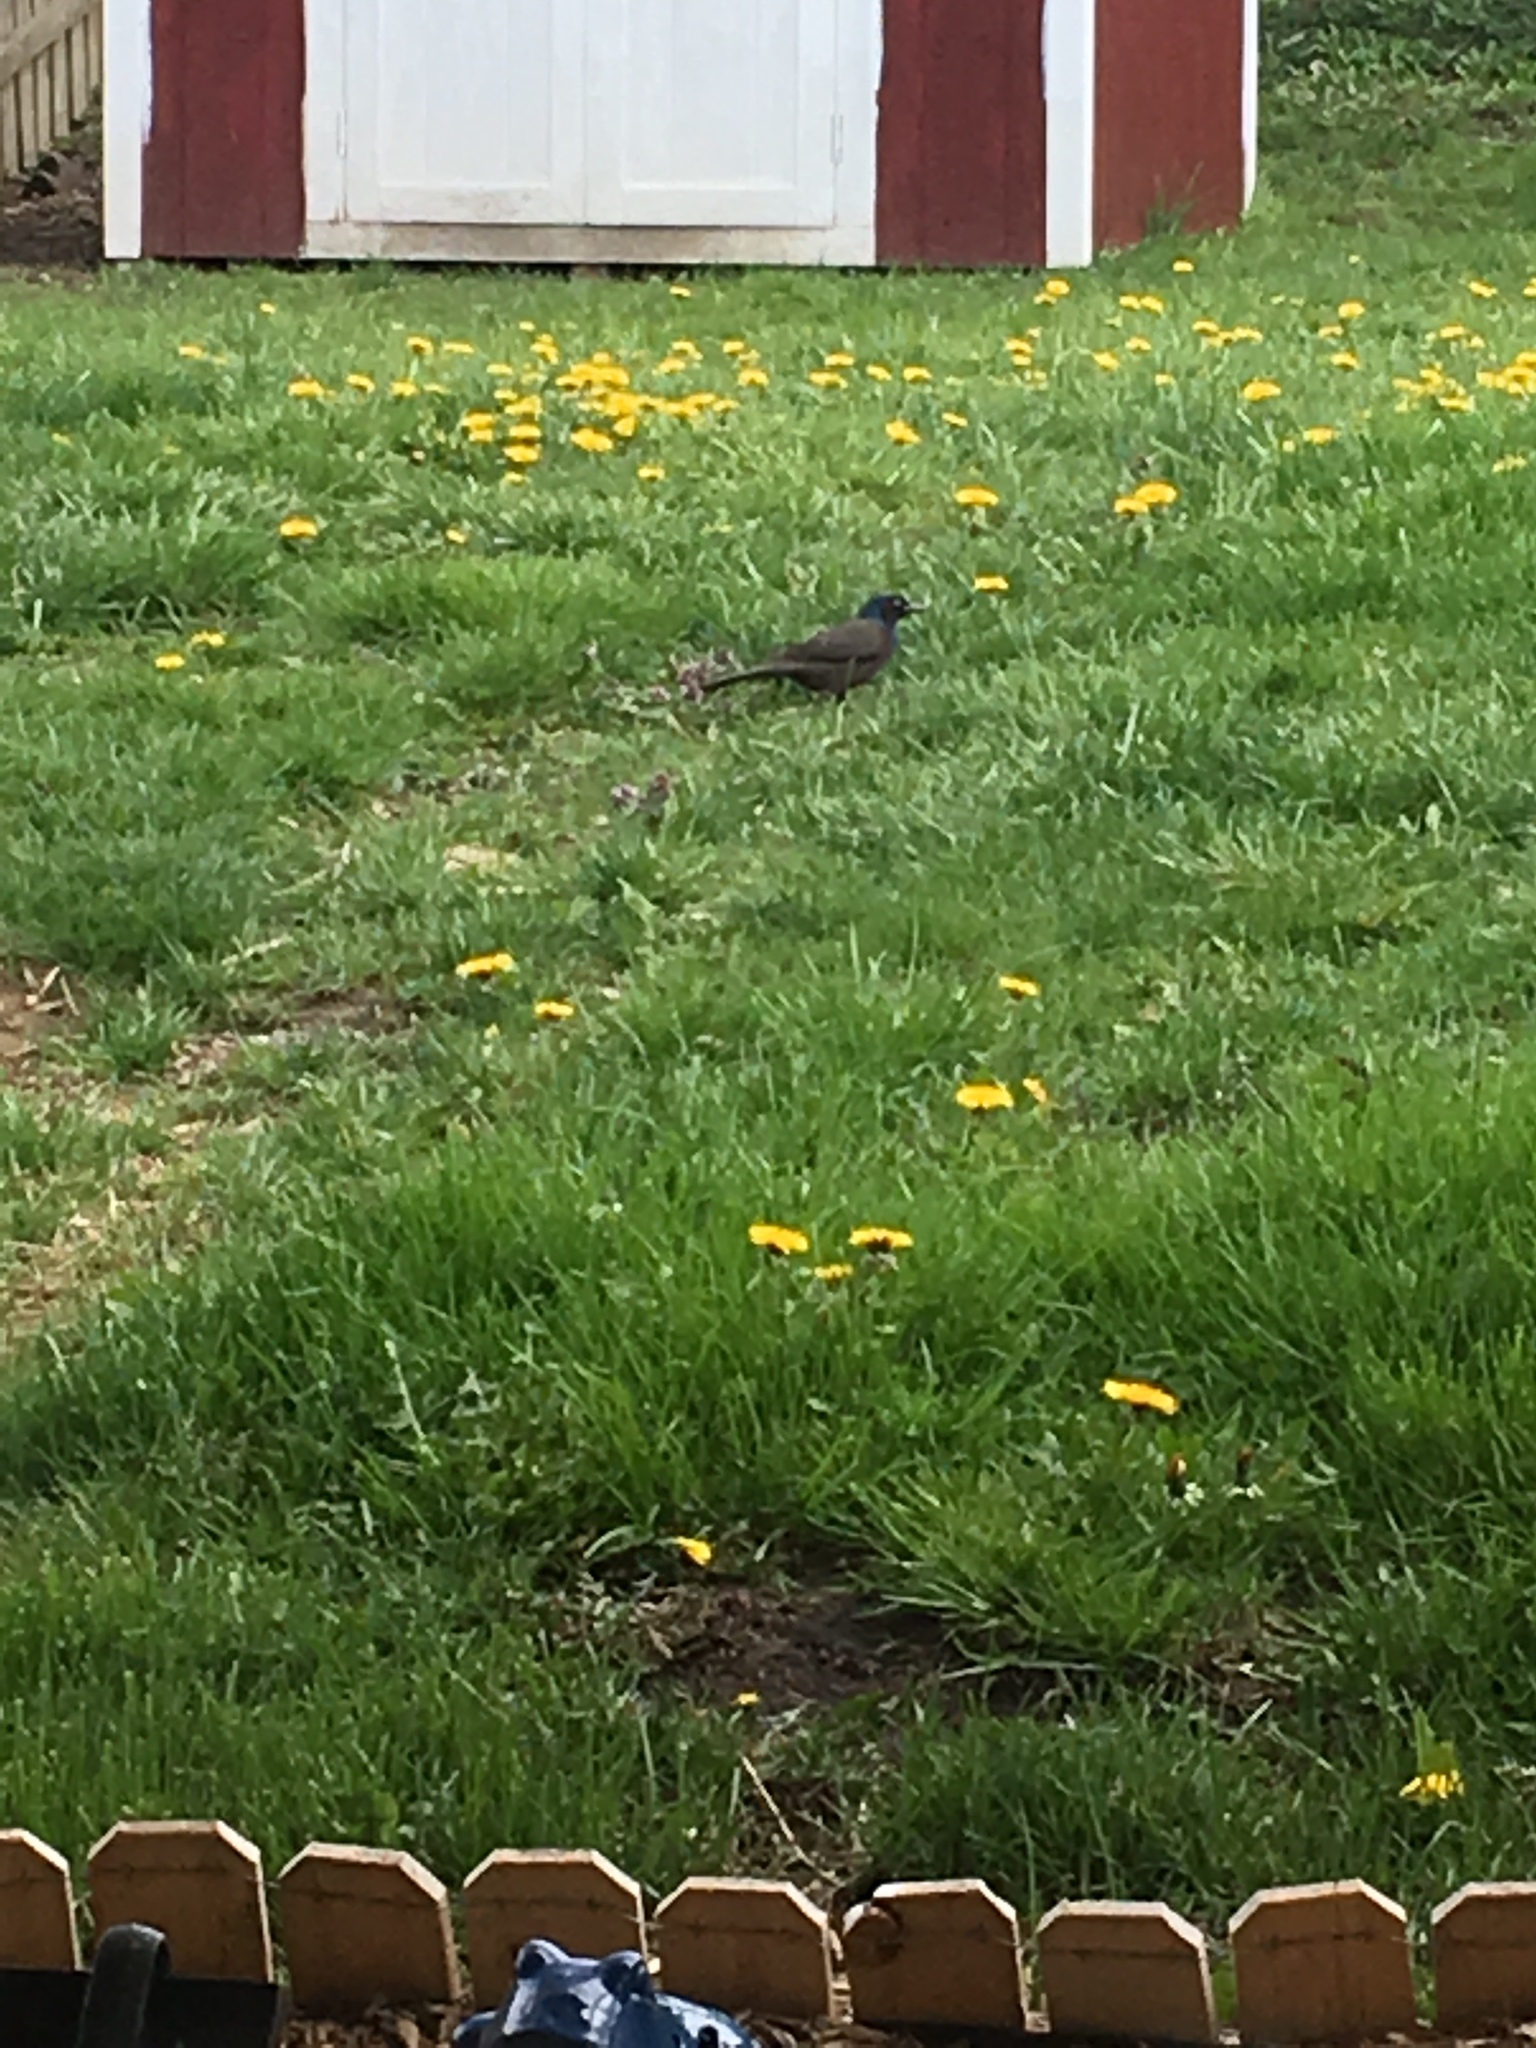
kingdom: Animalia
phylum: Chordata
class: Aves
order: Passeriformes
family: Icteridae
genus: Quiscalus
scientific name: Quiscalus quiscula
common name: Common grackle
